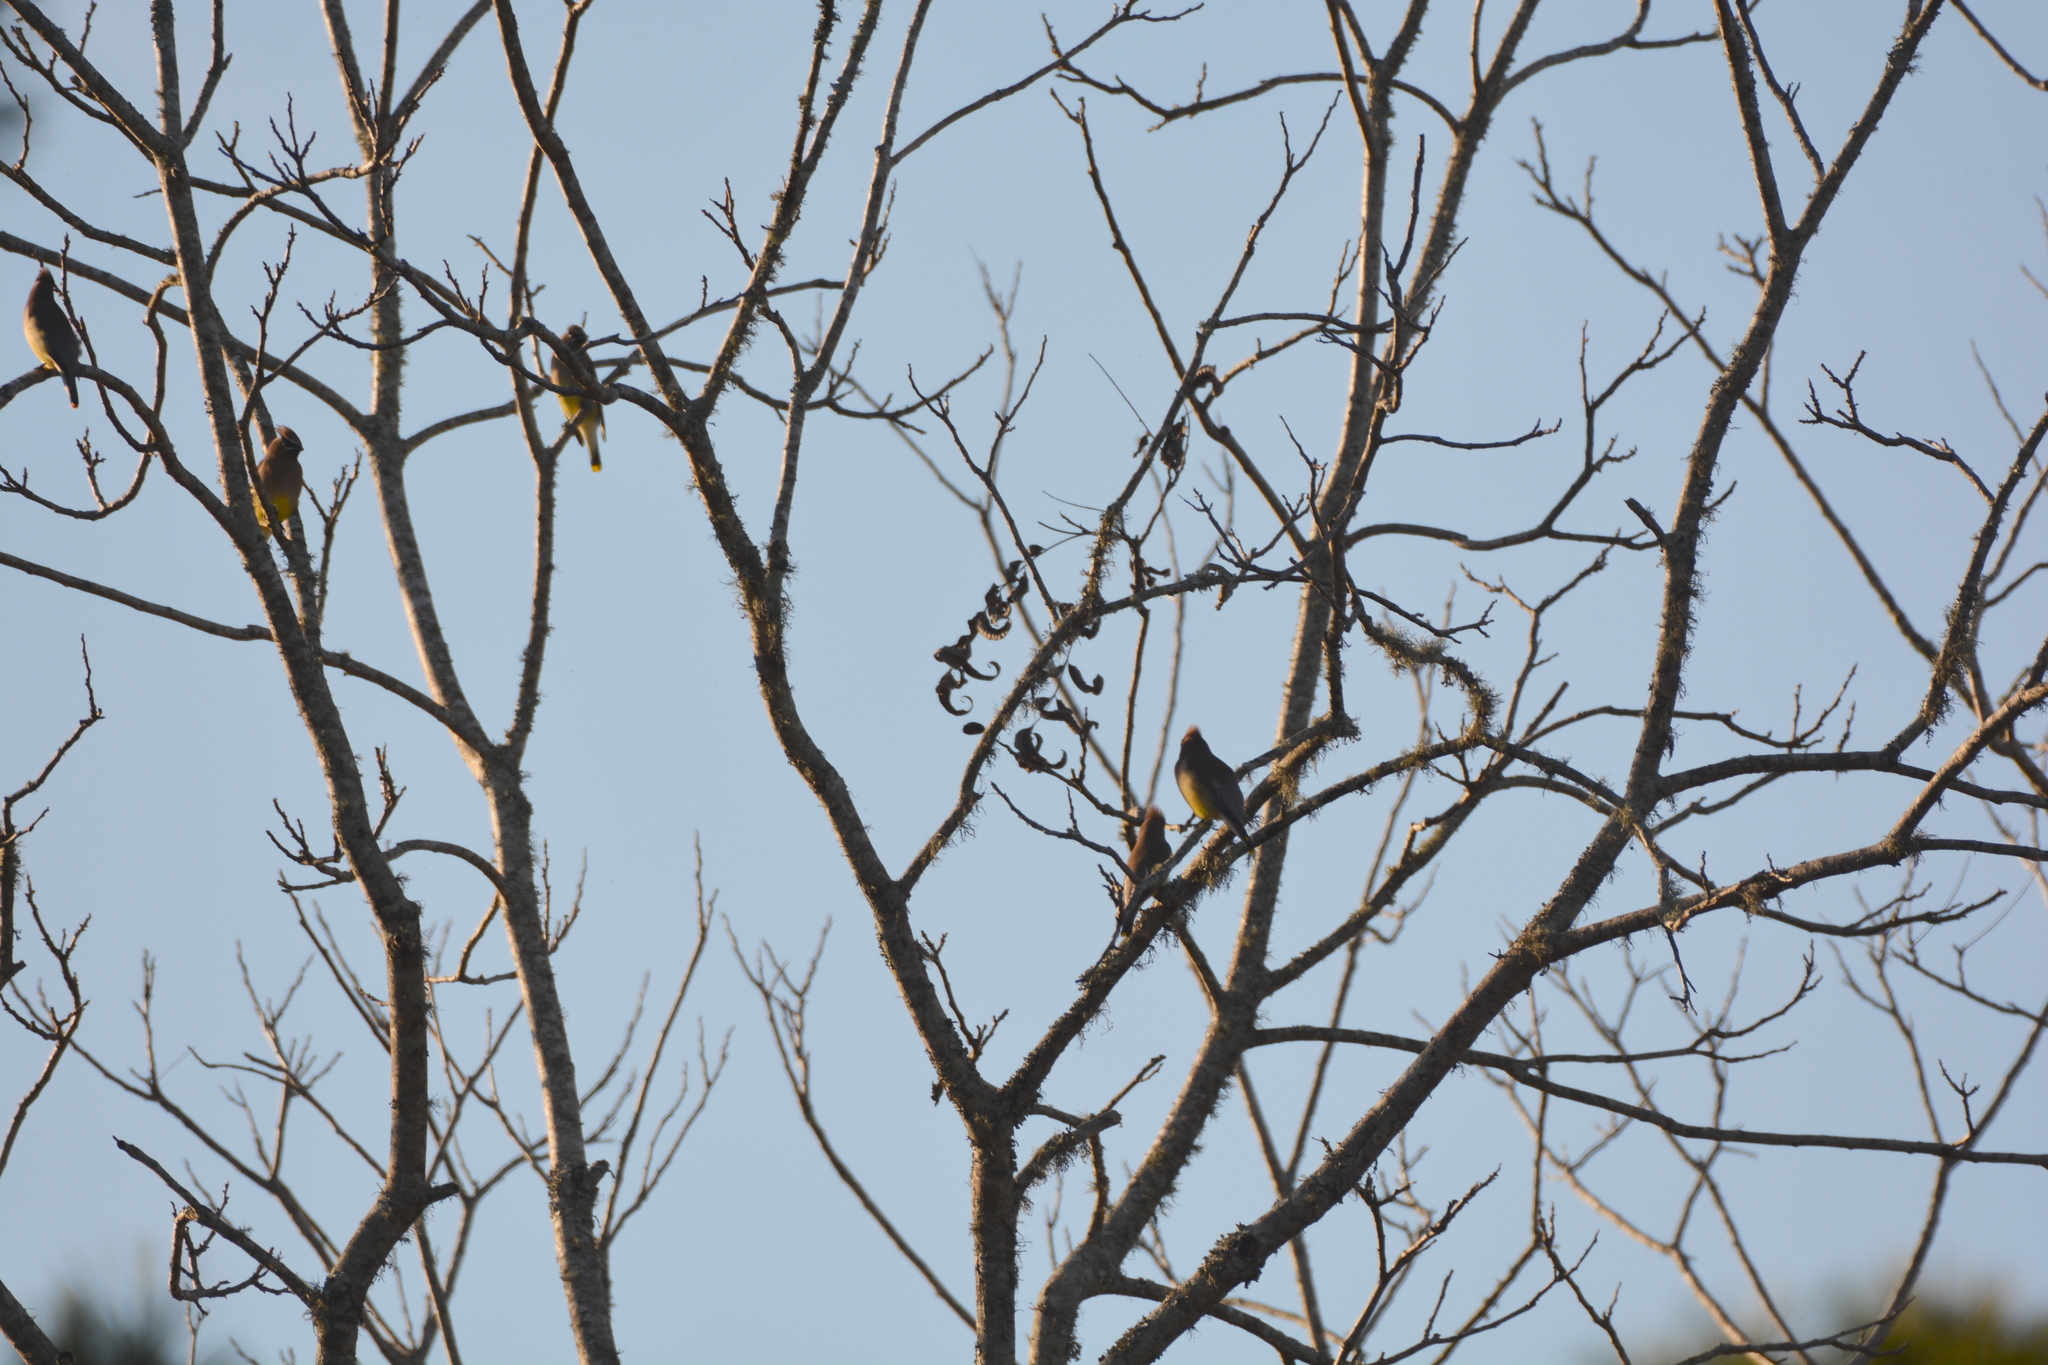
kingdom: Animalia
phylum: Chordata
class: Aves
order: Passeriformes
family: Bombycillidae
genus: Bombycilla
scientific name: Bombycilla cedrorum
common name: Cedar waxwing
